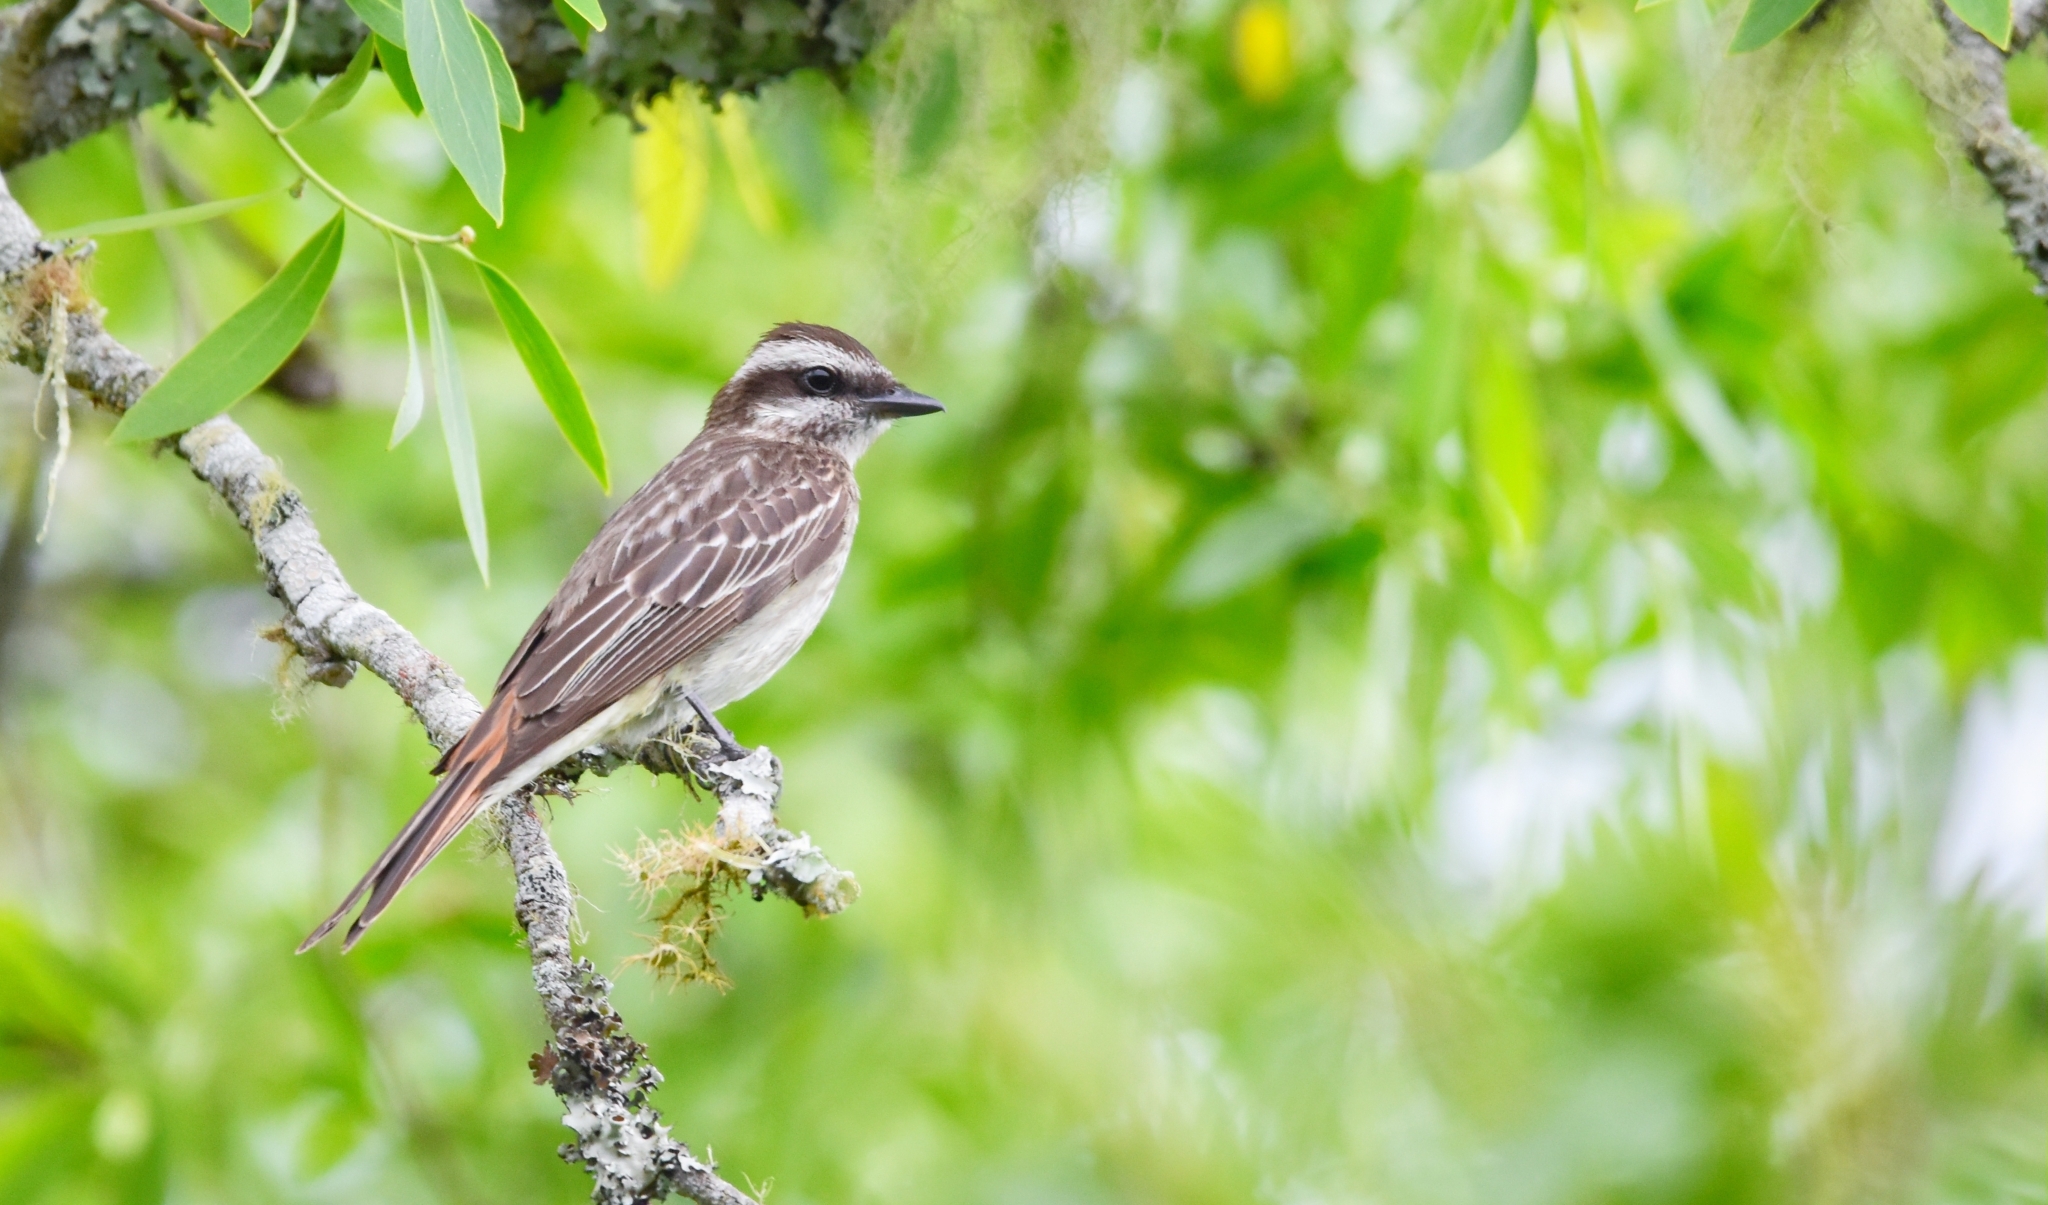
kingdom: Animalia
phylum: Chordata
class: Aves
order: Passeriformes
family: Tyrannidae
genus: Empidonomus
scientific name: Empidonomus varius
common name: Variegated flycatcher
